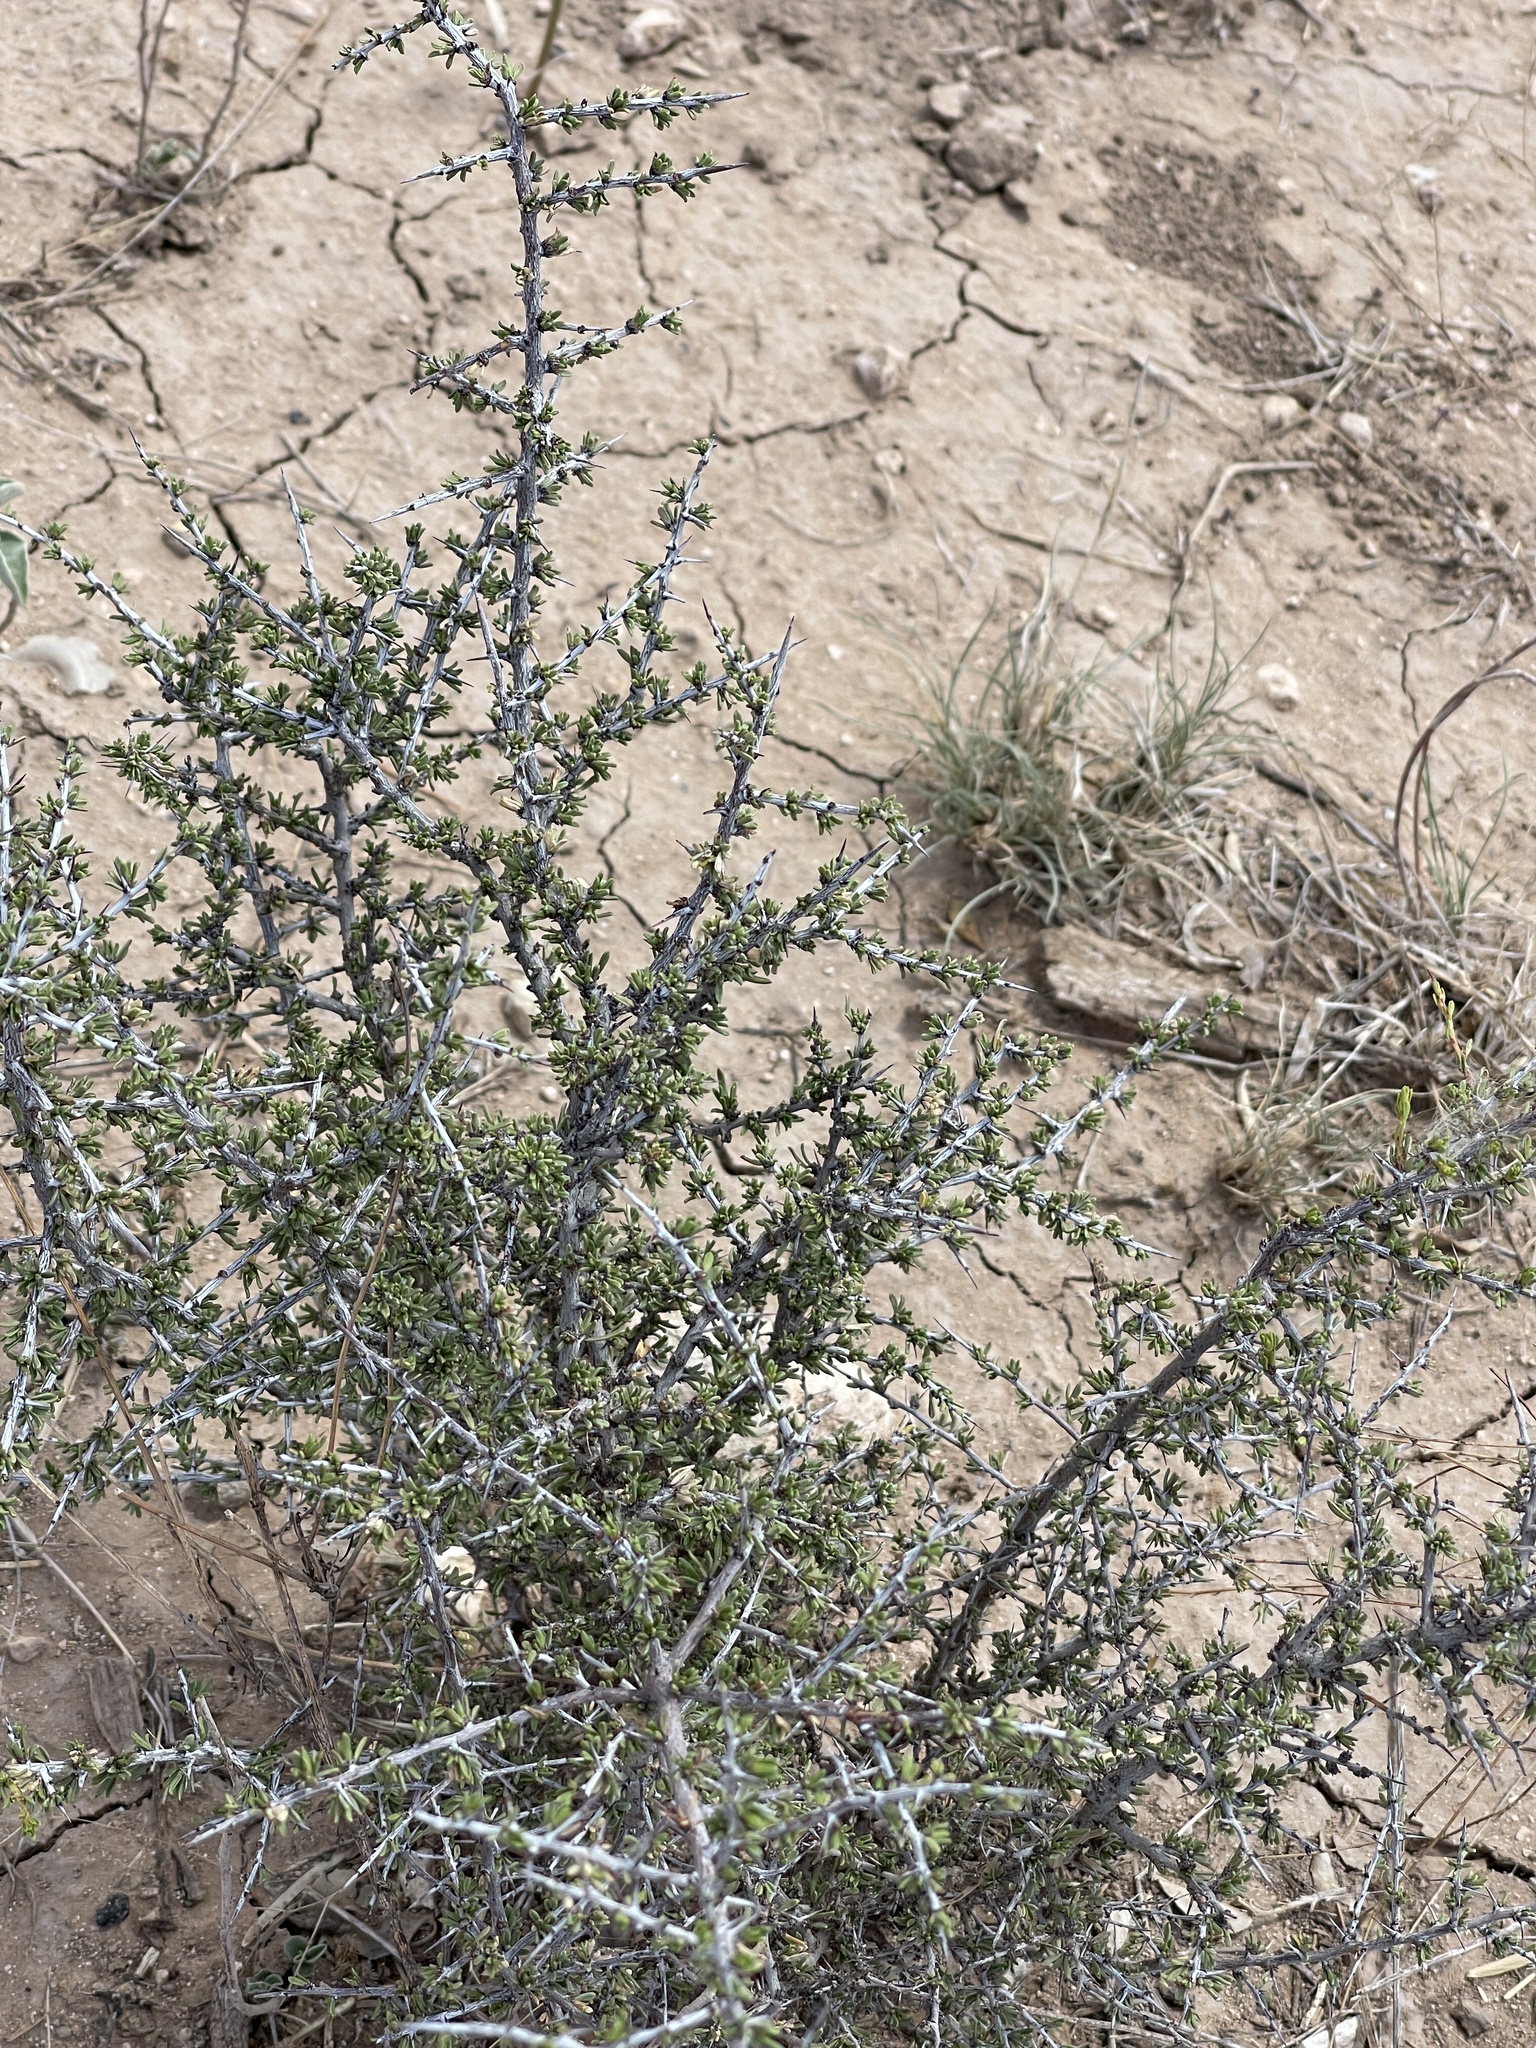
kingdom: Plantae
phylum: Tracheophyta
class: Magnoliopsida
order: Rosales
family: Rhamnaceae
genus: Condalia
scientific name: Condalia ericoides
